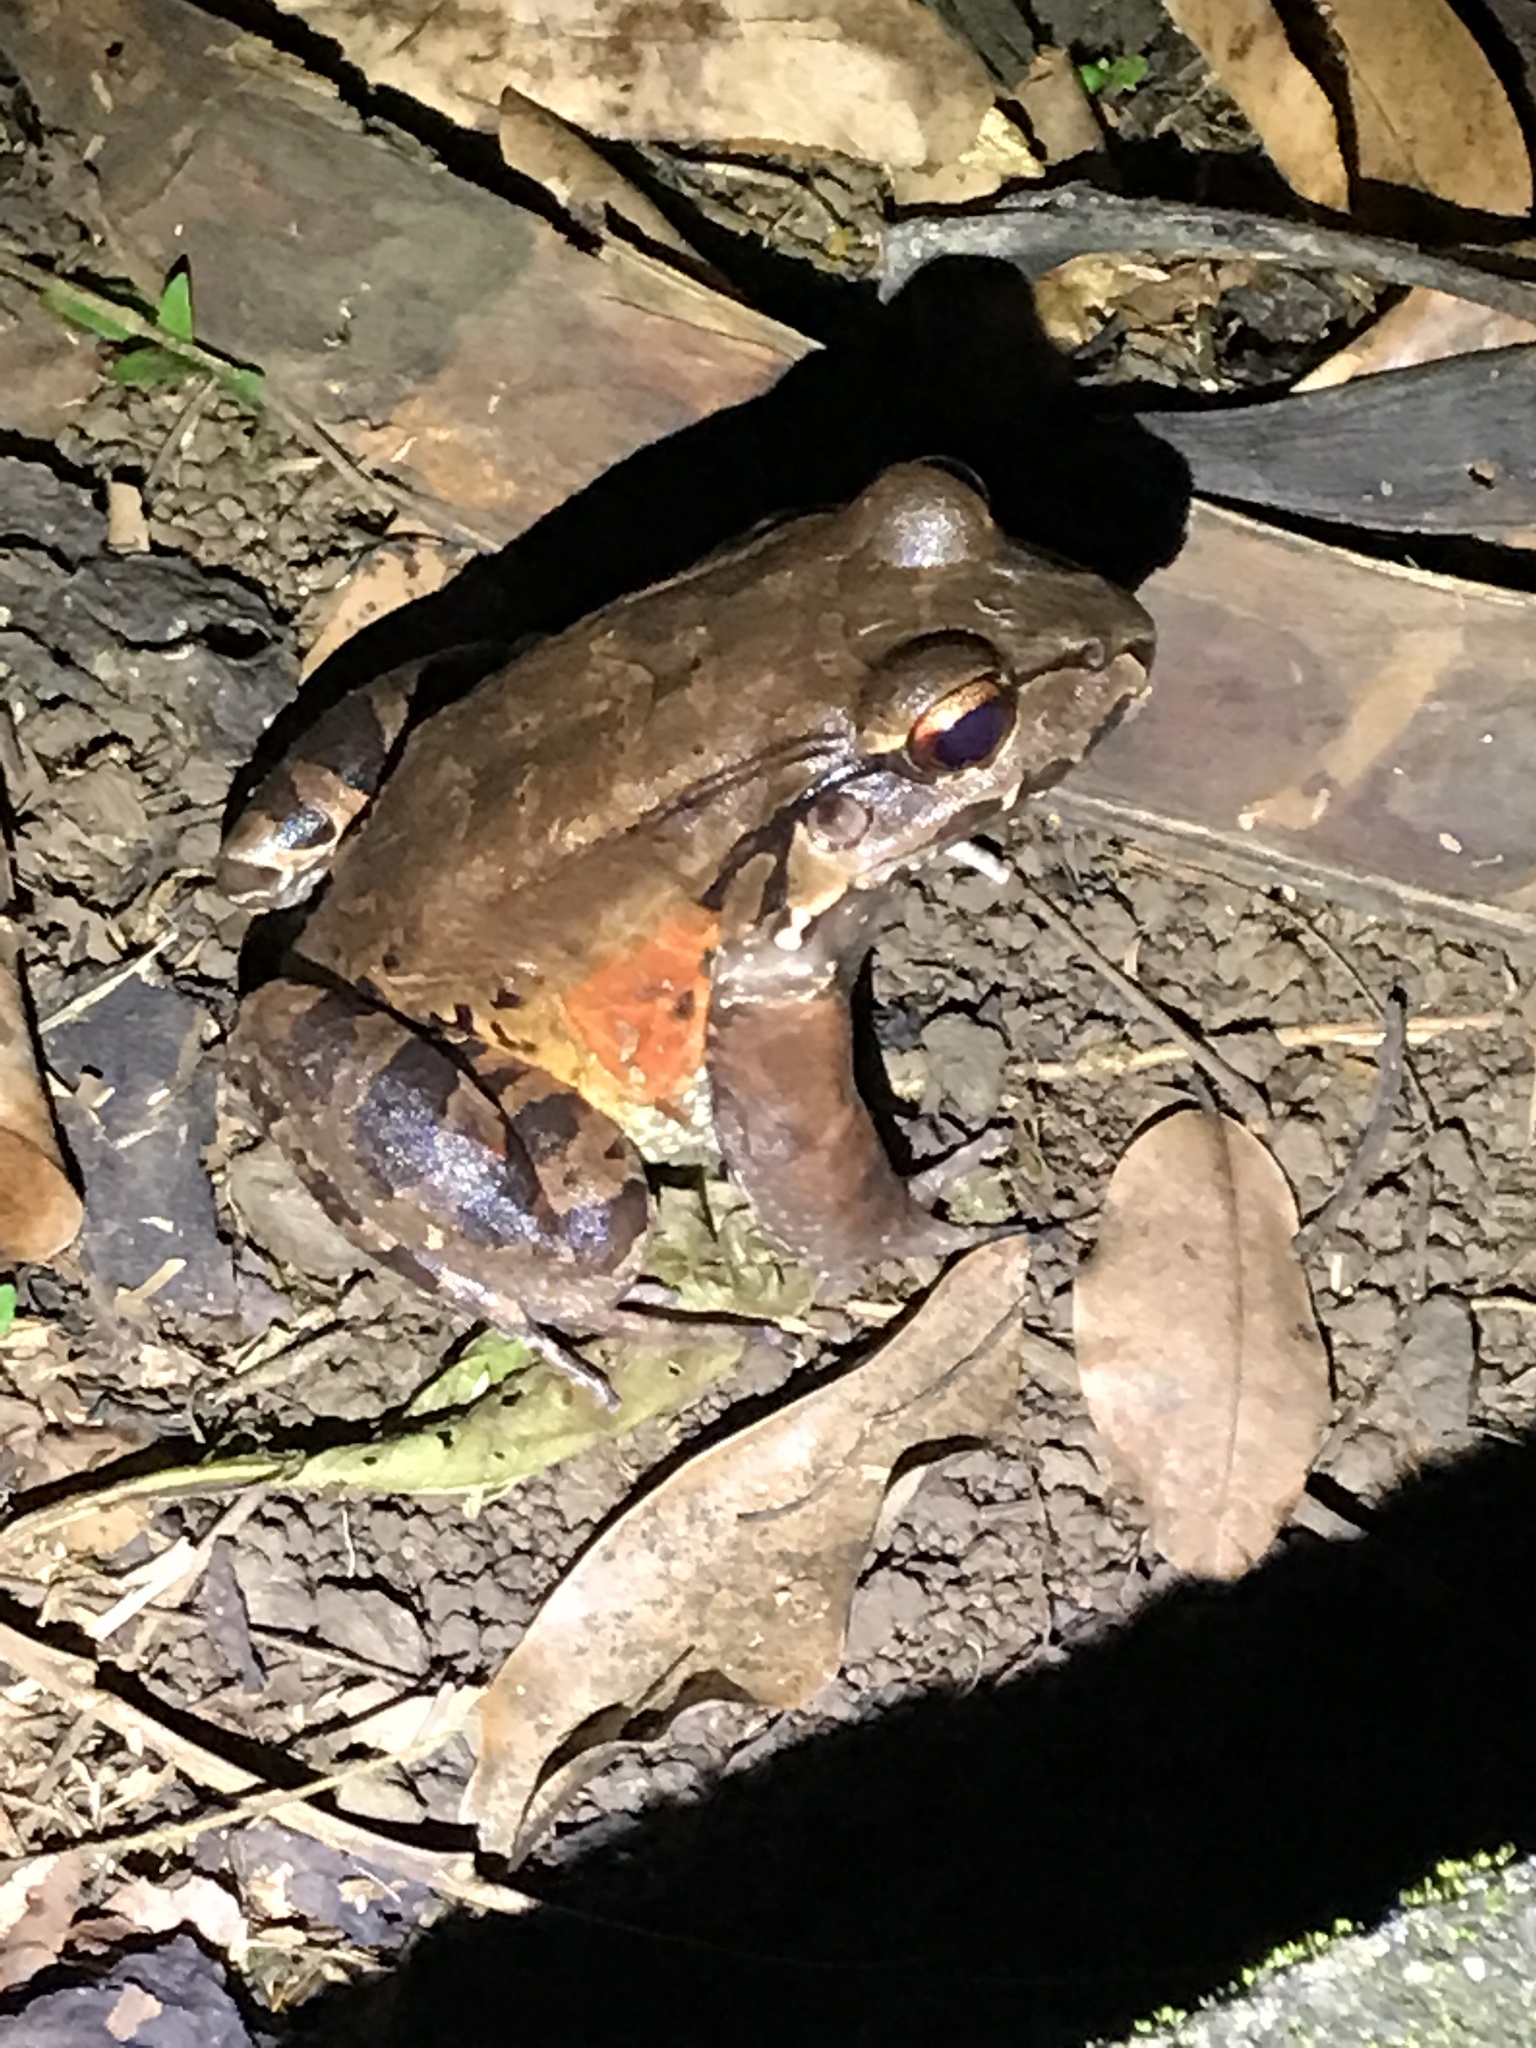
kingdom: Animalia
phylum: Chordata
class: Amphibia
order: Anura
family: Leptodactylidae
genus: Leptodactylus
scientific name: Leptodactylus savagei
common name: Savage's thin-toed frog
